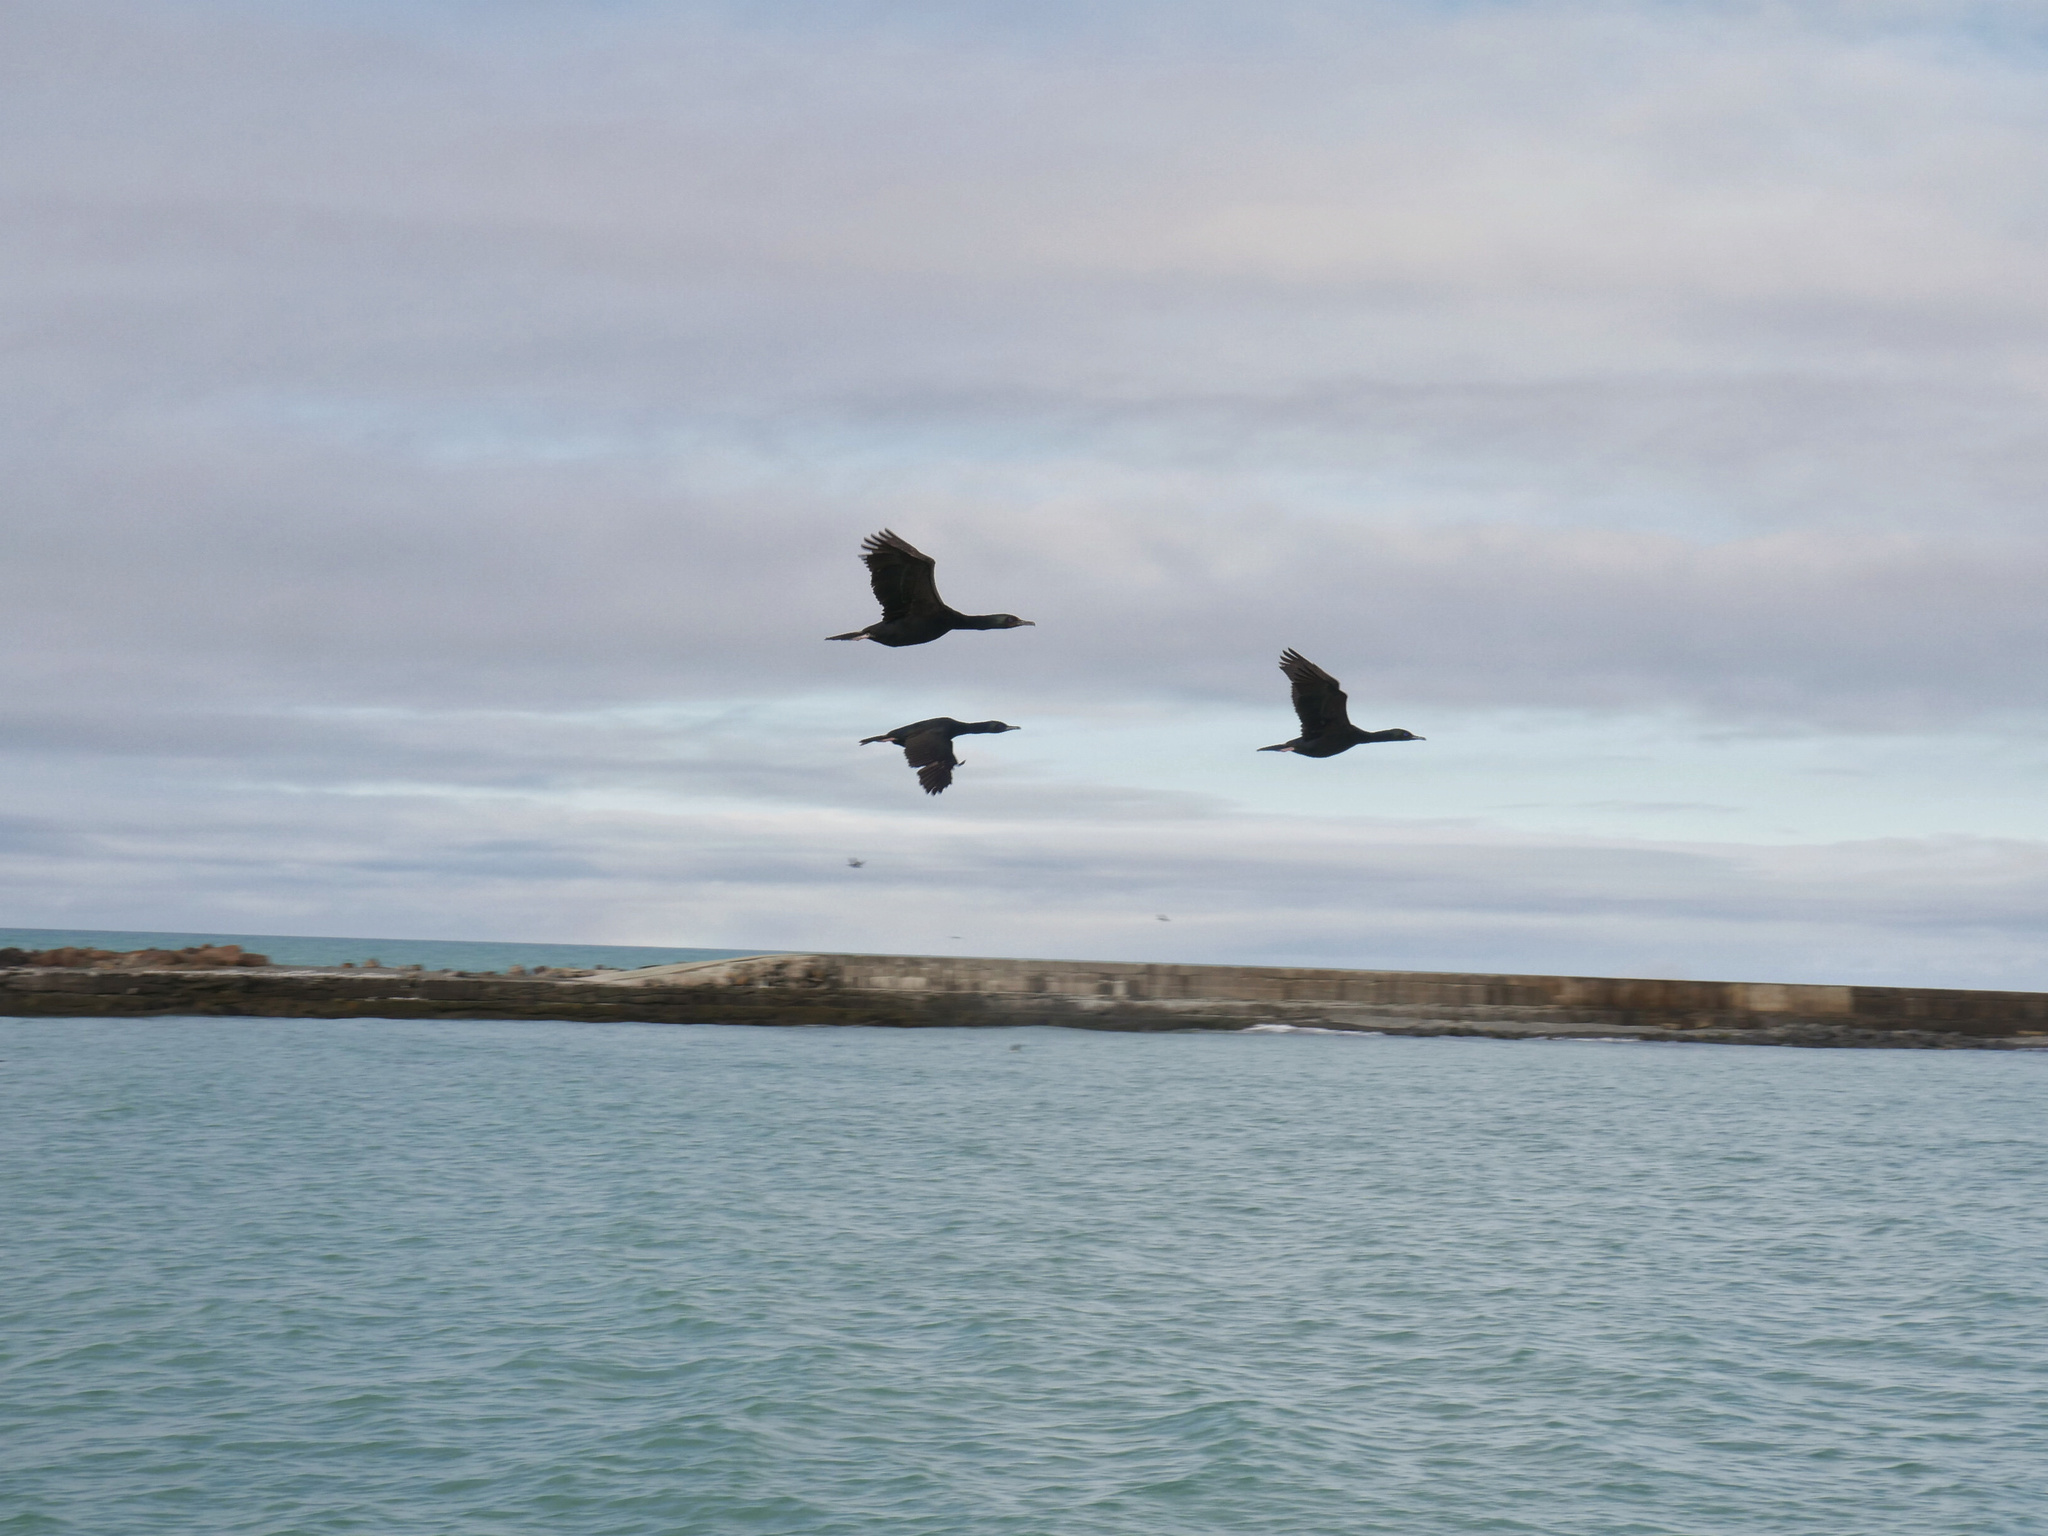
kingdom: Animalia
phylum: Chordata
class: Aves
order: Suliformes
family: Phalacrocoracidae
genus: Leucocarbo
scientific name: Leucocarbo chalconotus
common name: Stewart shag
